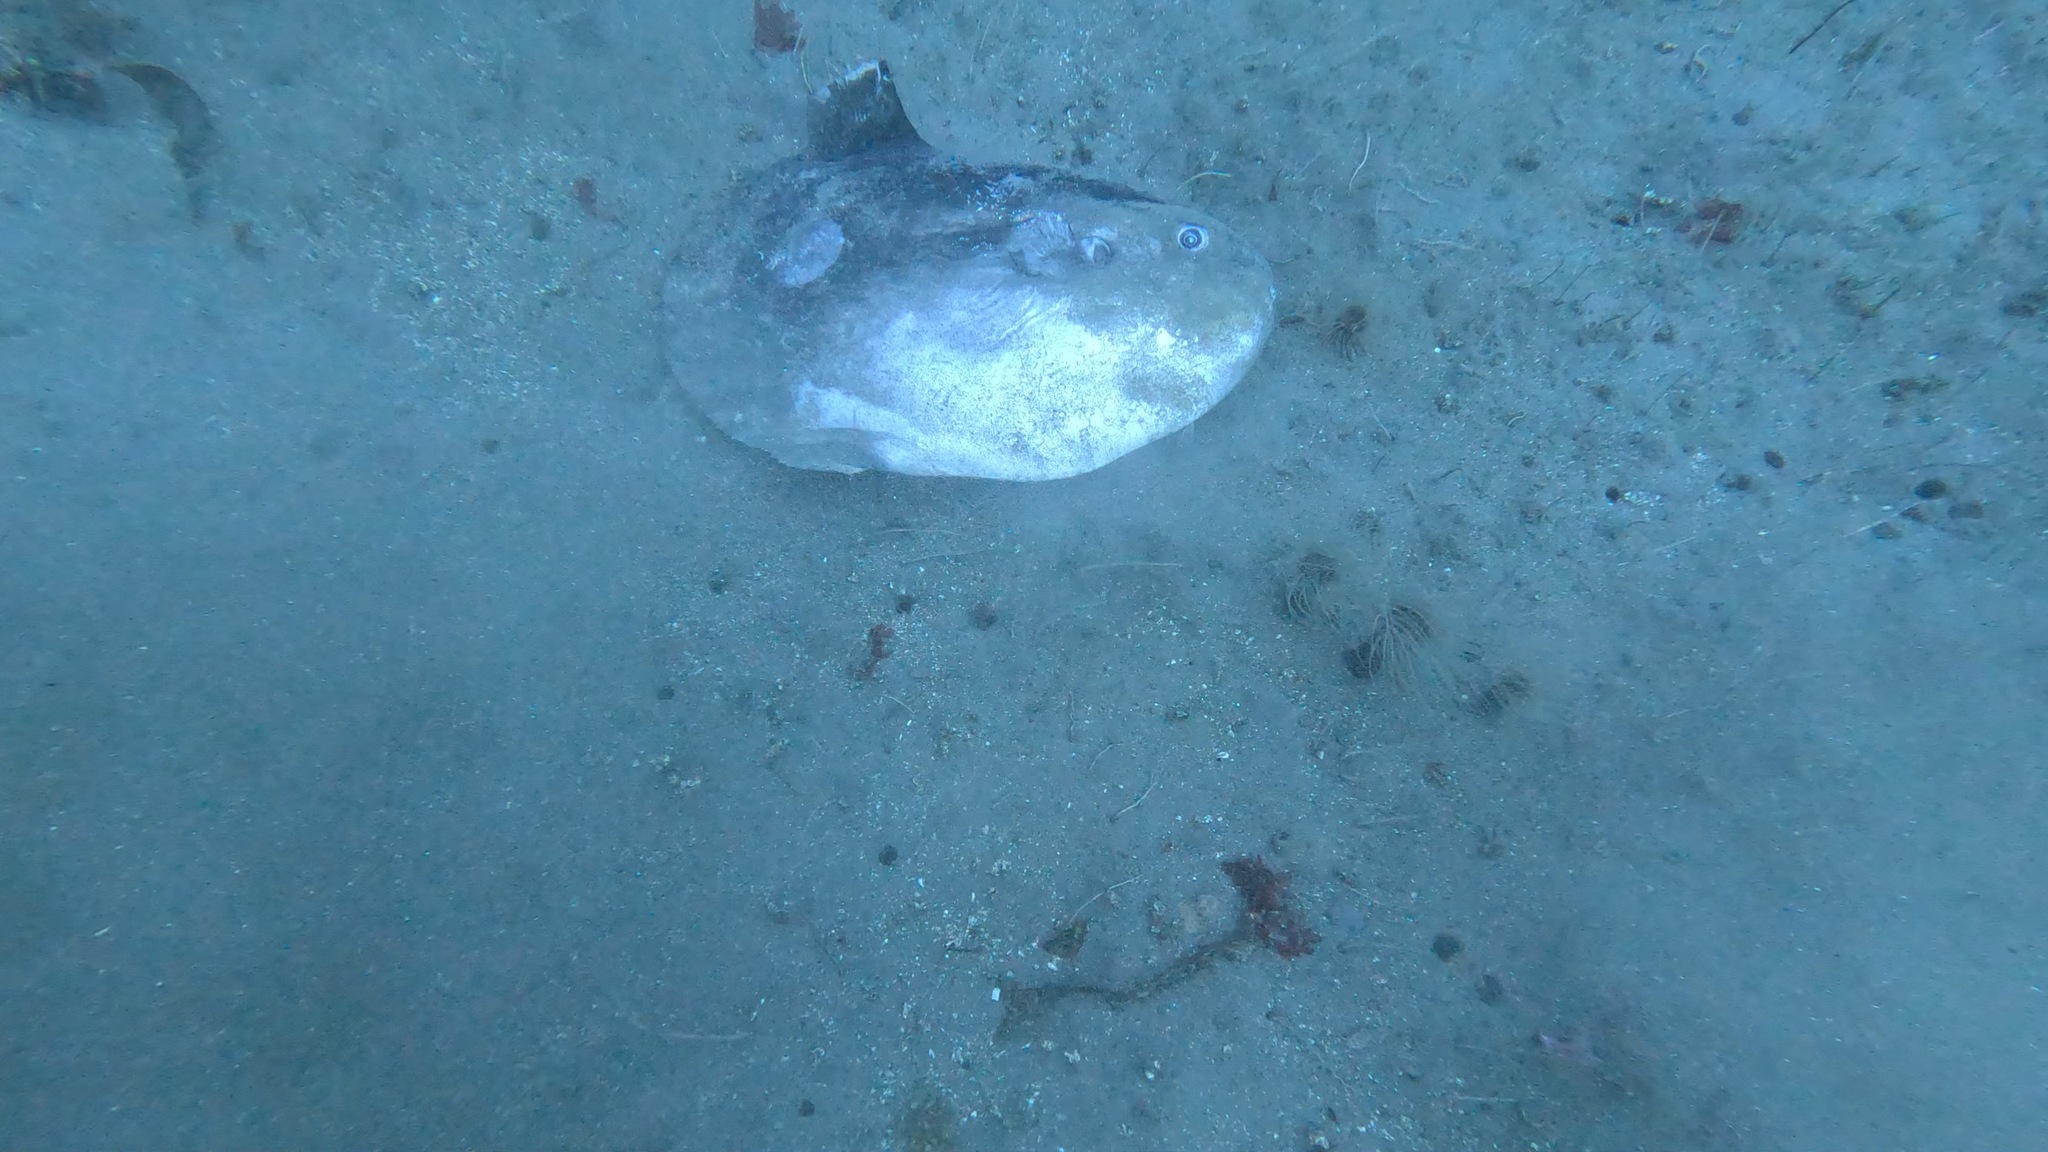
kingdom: Animalia
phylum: Chordata
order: Tetraodontiformes
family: Molidae
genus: Mola
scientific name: Mola mola
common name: Ocean sunfish
